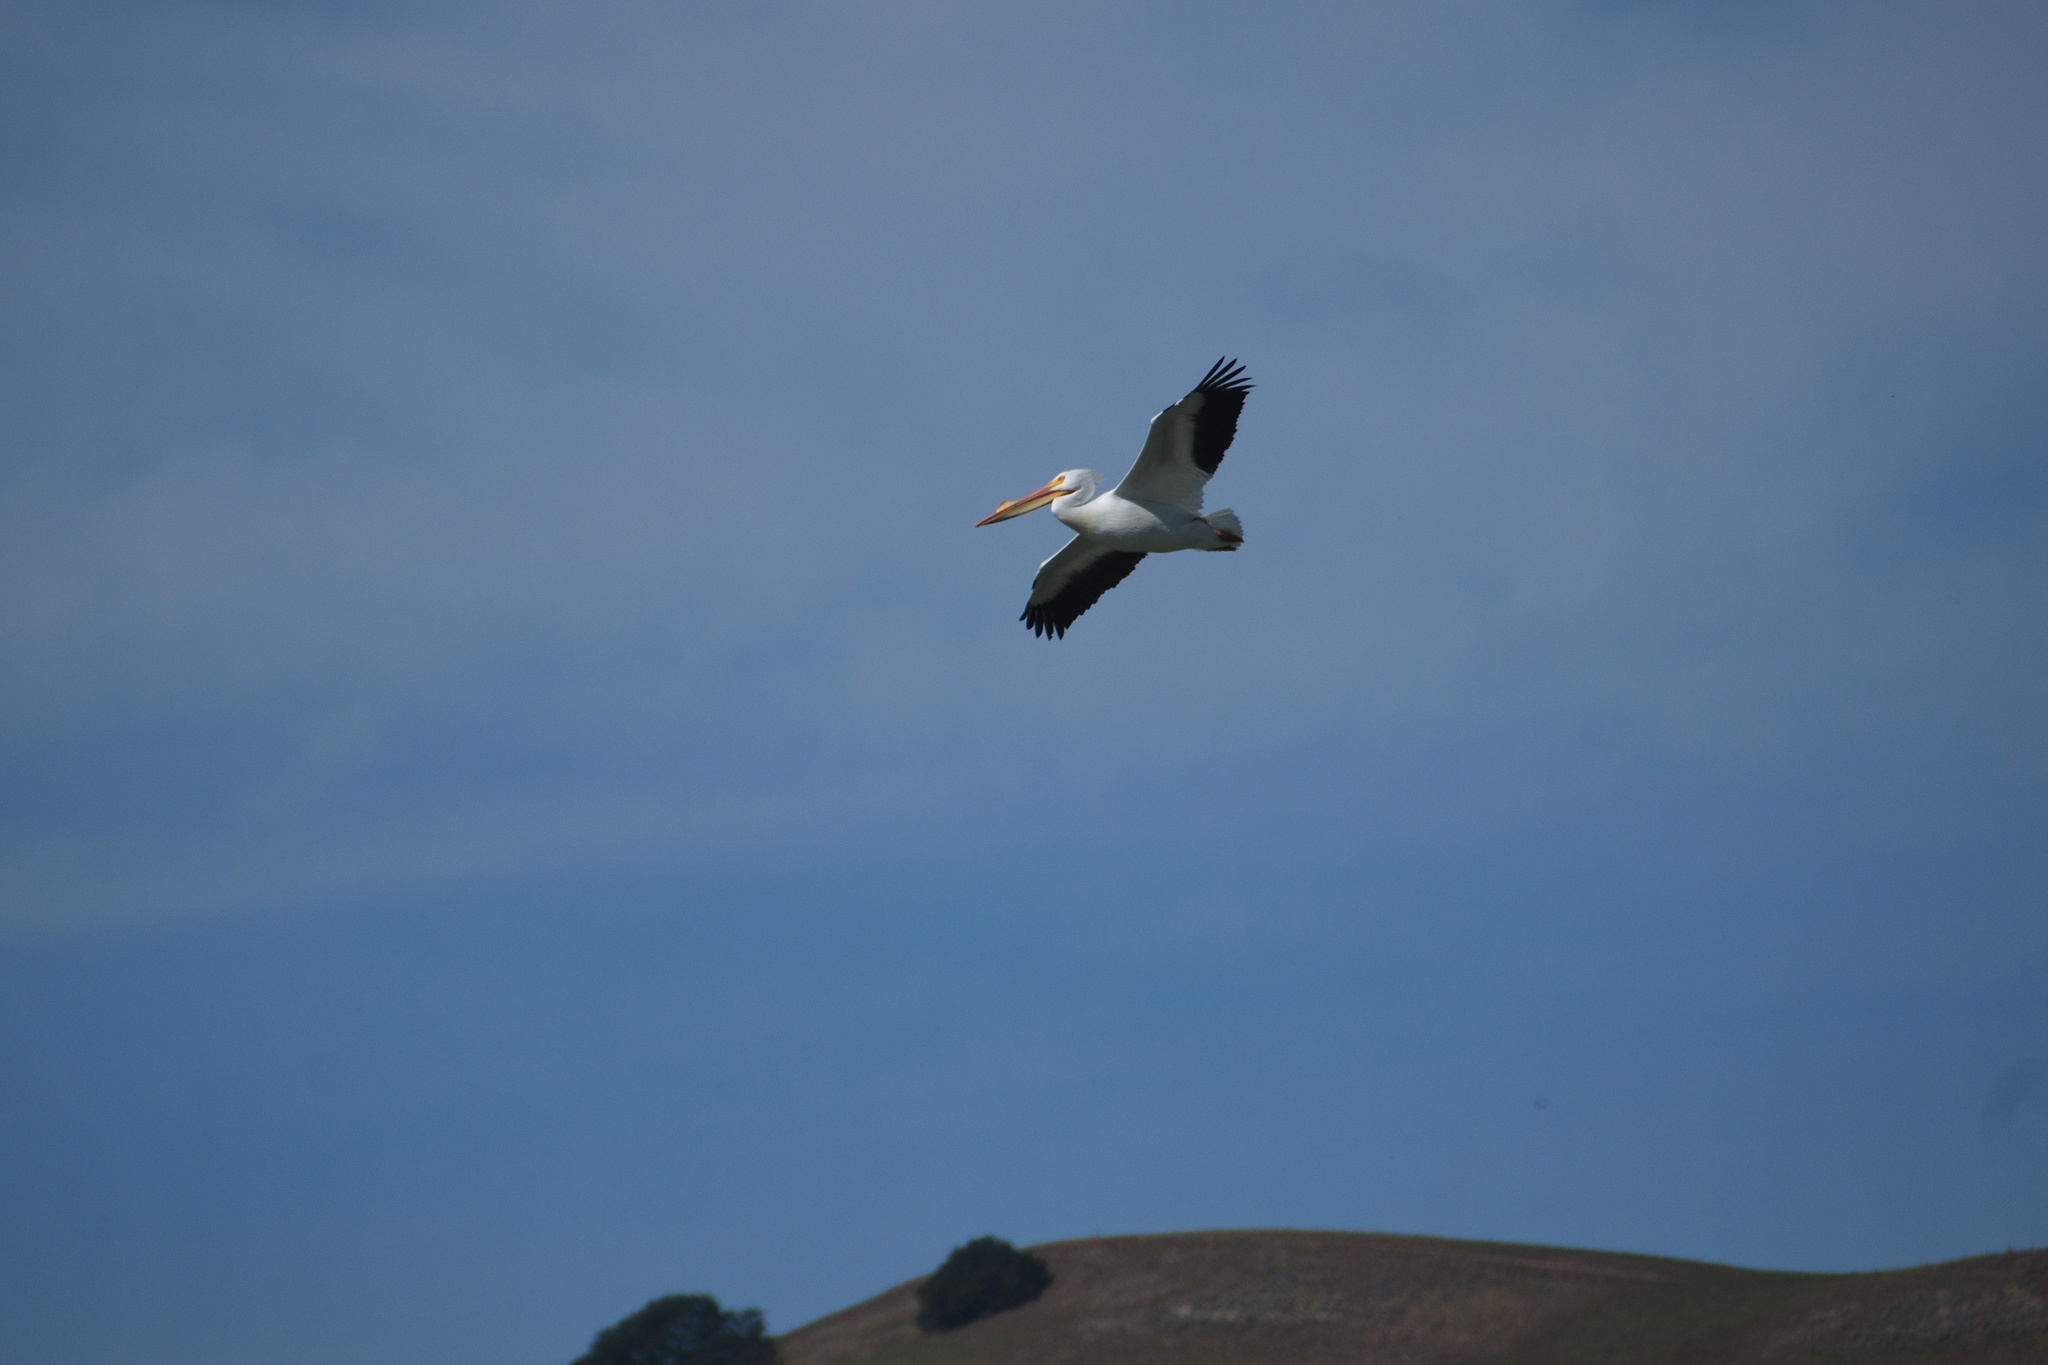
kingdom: Animalia
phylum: Chordata
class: Aves
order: Pelecaniformes
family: Pelecanidae
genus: Pelecanus
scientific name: Pelecanus erythrorhynchos
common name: American white pelican
